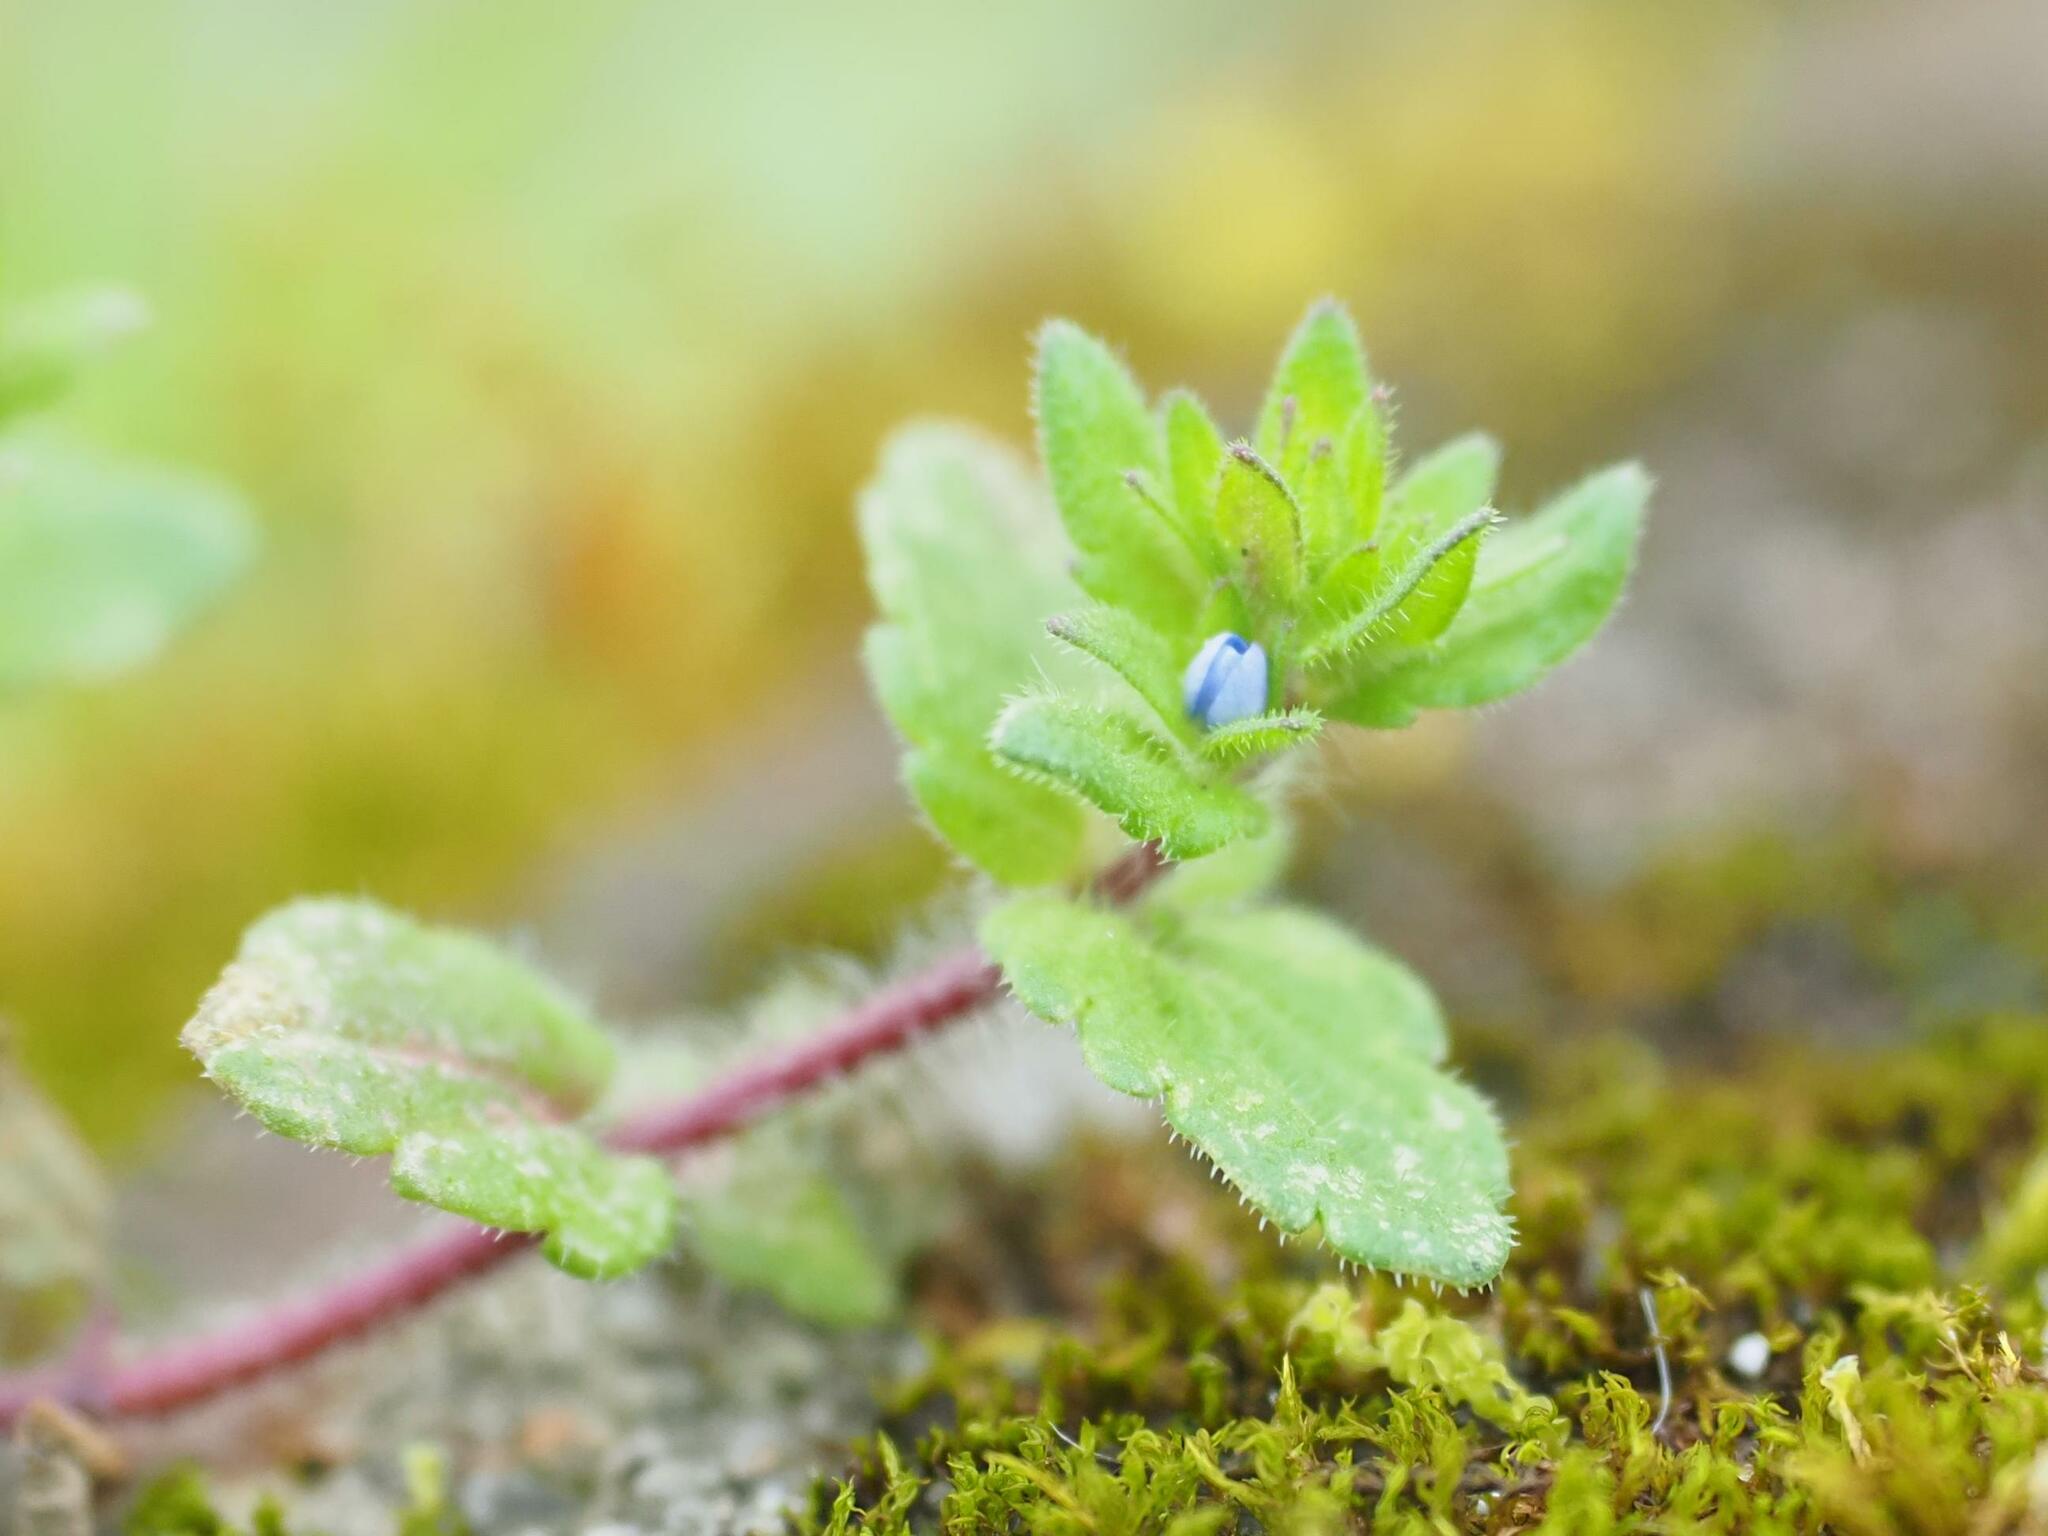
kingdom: Plantae
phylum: Tracheophyta
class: Magnoliopsida
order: Lamiales
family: Plantaginaceae
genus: Veronica
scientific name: Veronica arvensis
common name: Corn speedwell
